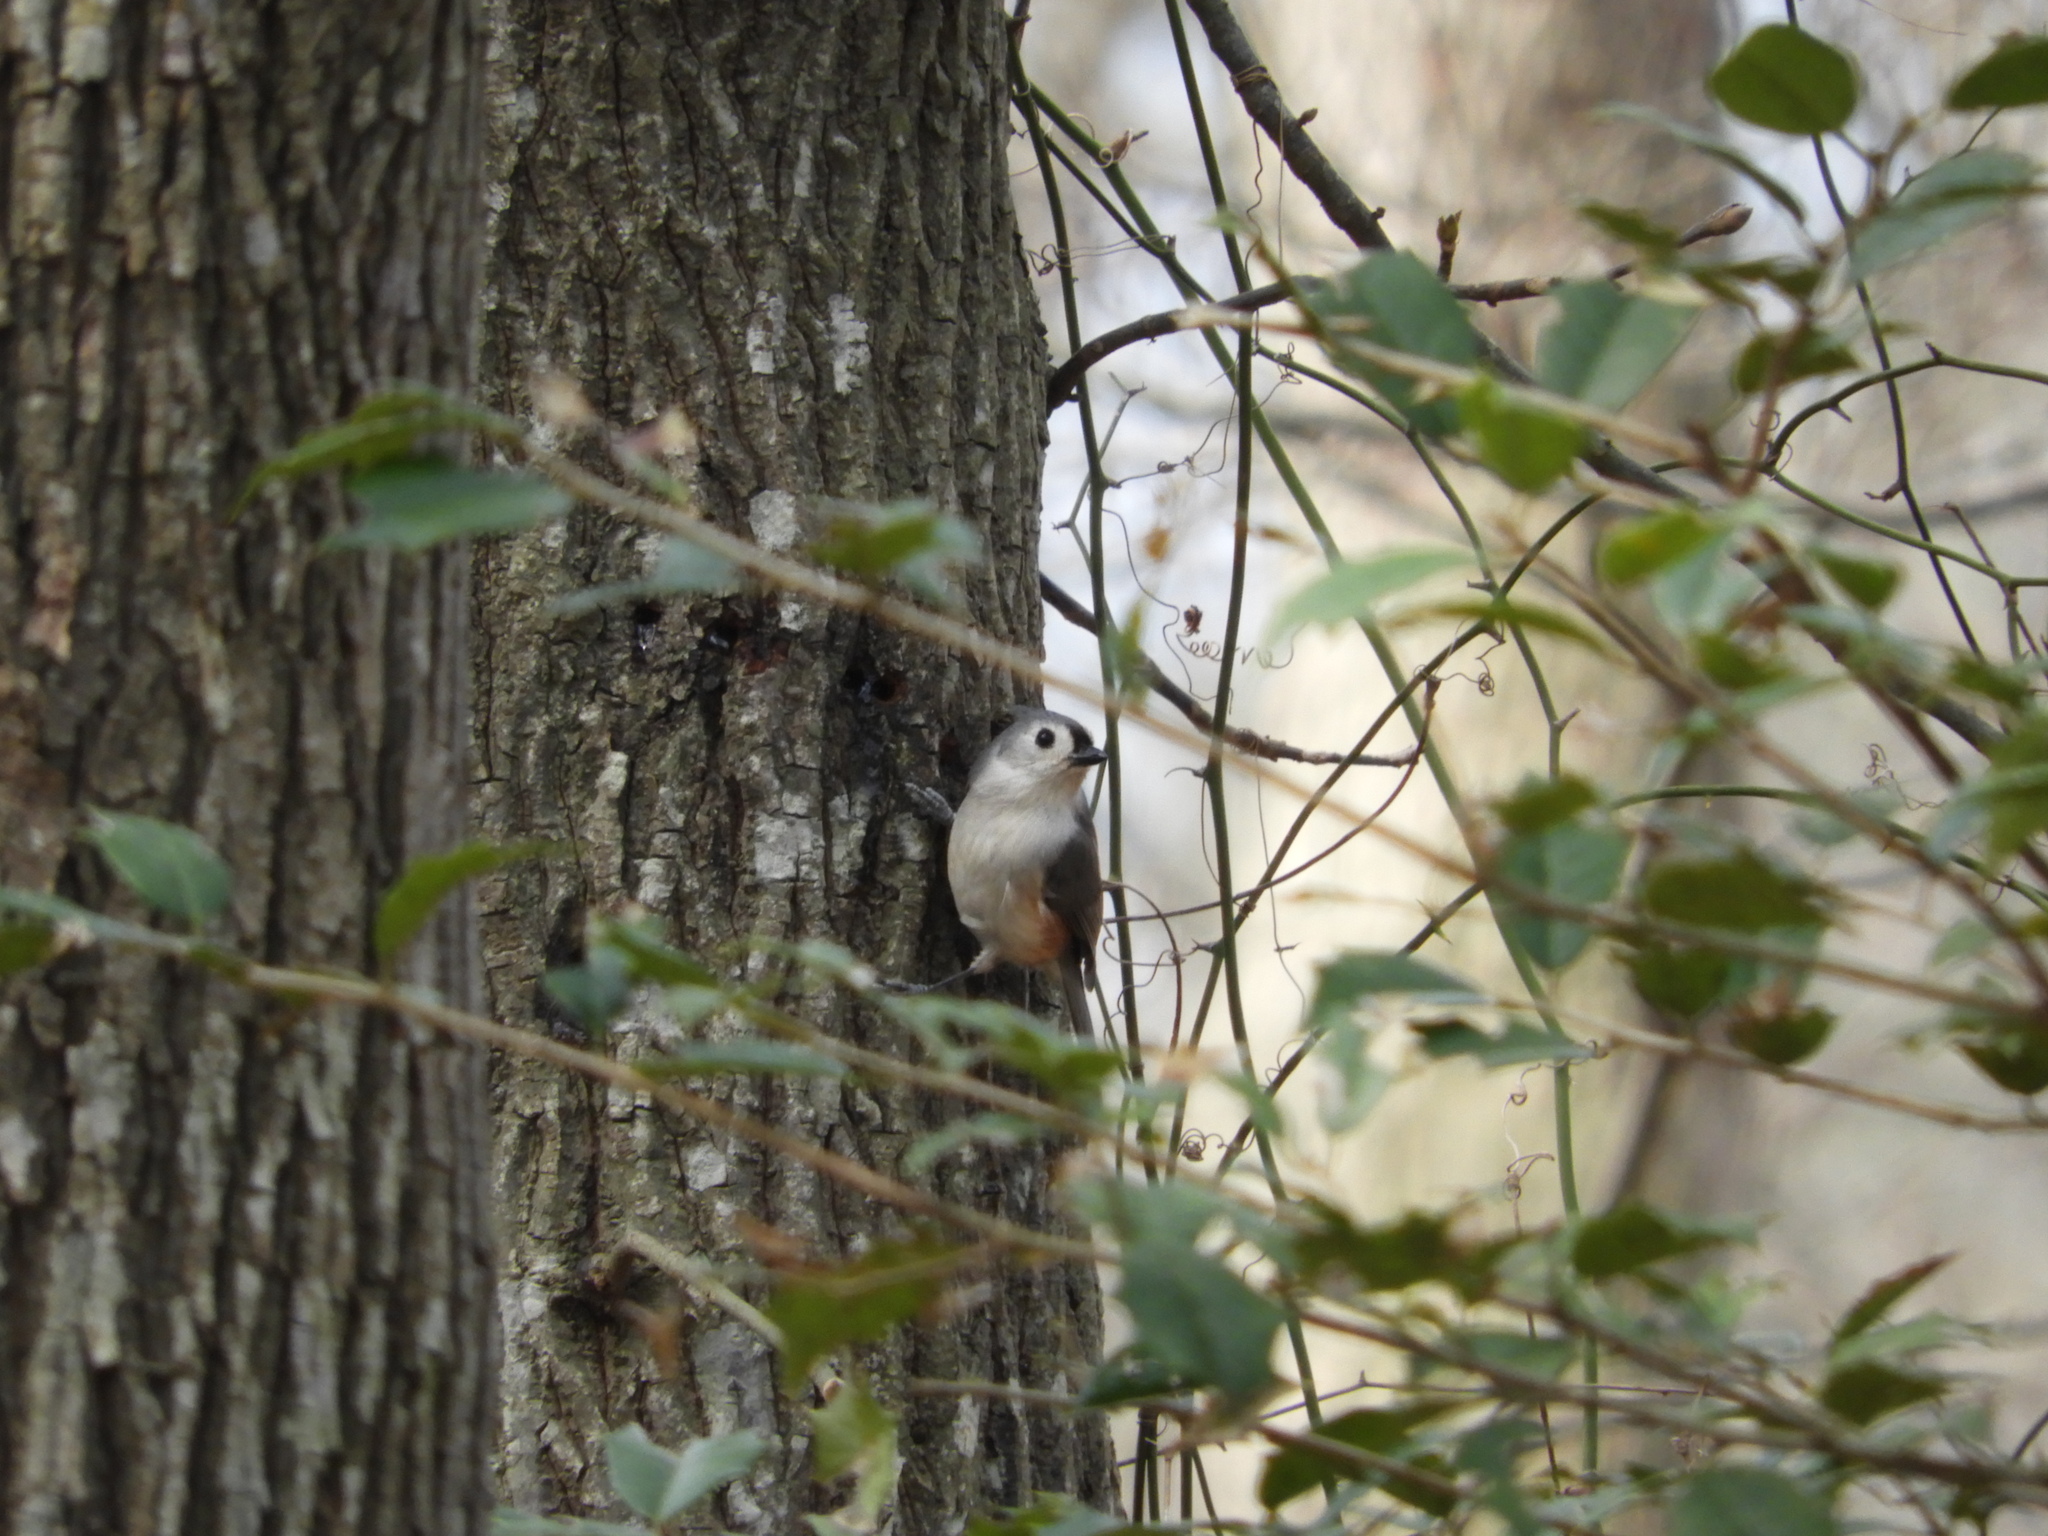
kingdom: Animalia
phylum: Chordata
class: Aves
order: Passeriformes
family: Paridae
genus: Baeolophus
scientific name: Baeolophus bicolor
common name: Tufted titmouse
